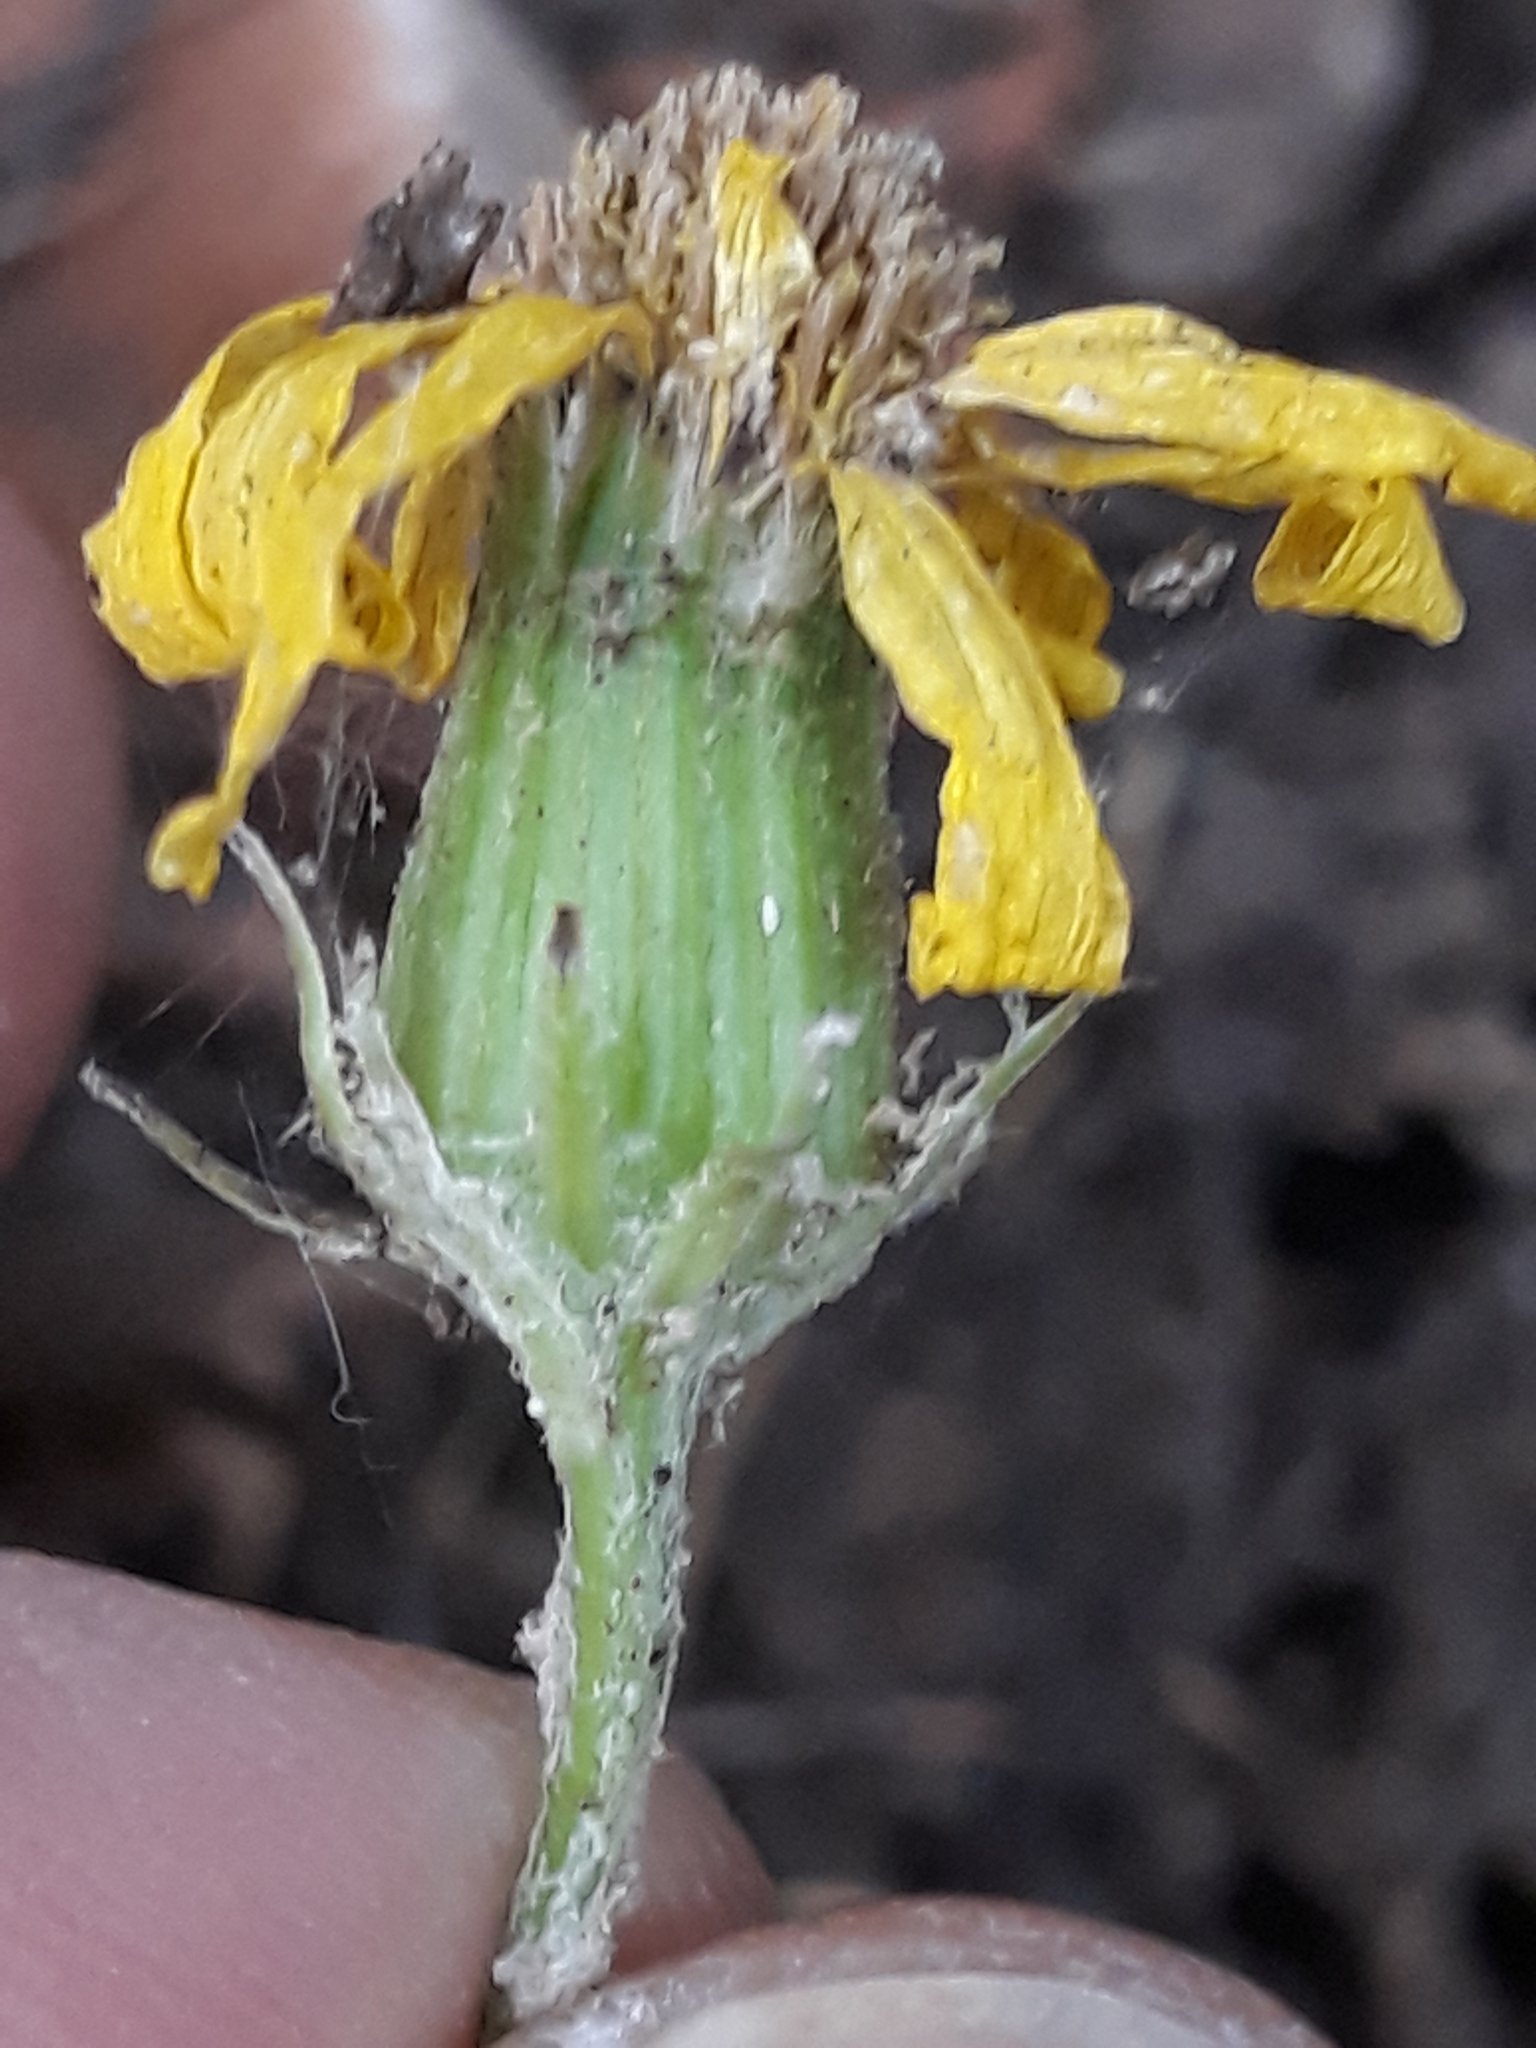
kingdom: Plantae
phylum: Tracheophyta
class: Magnoliopsida
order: Asterales
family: Asteraceae
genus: Senecio
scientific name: Senecio perralderianus
